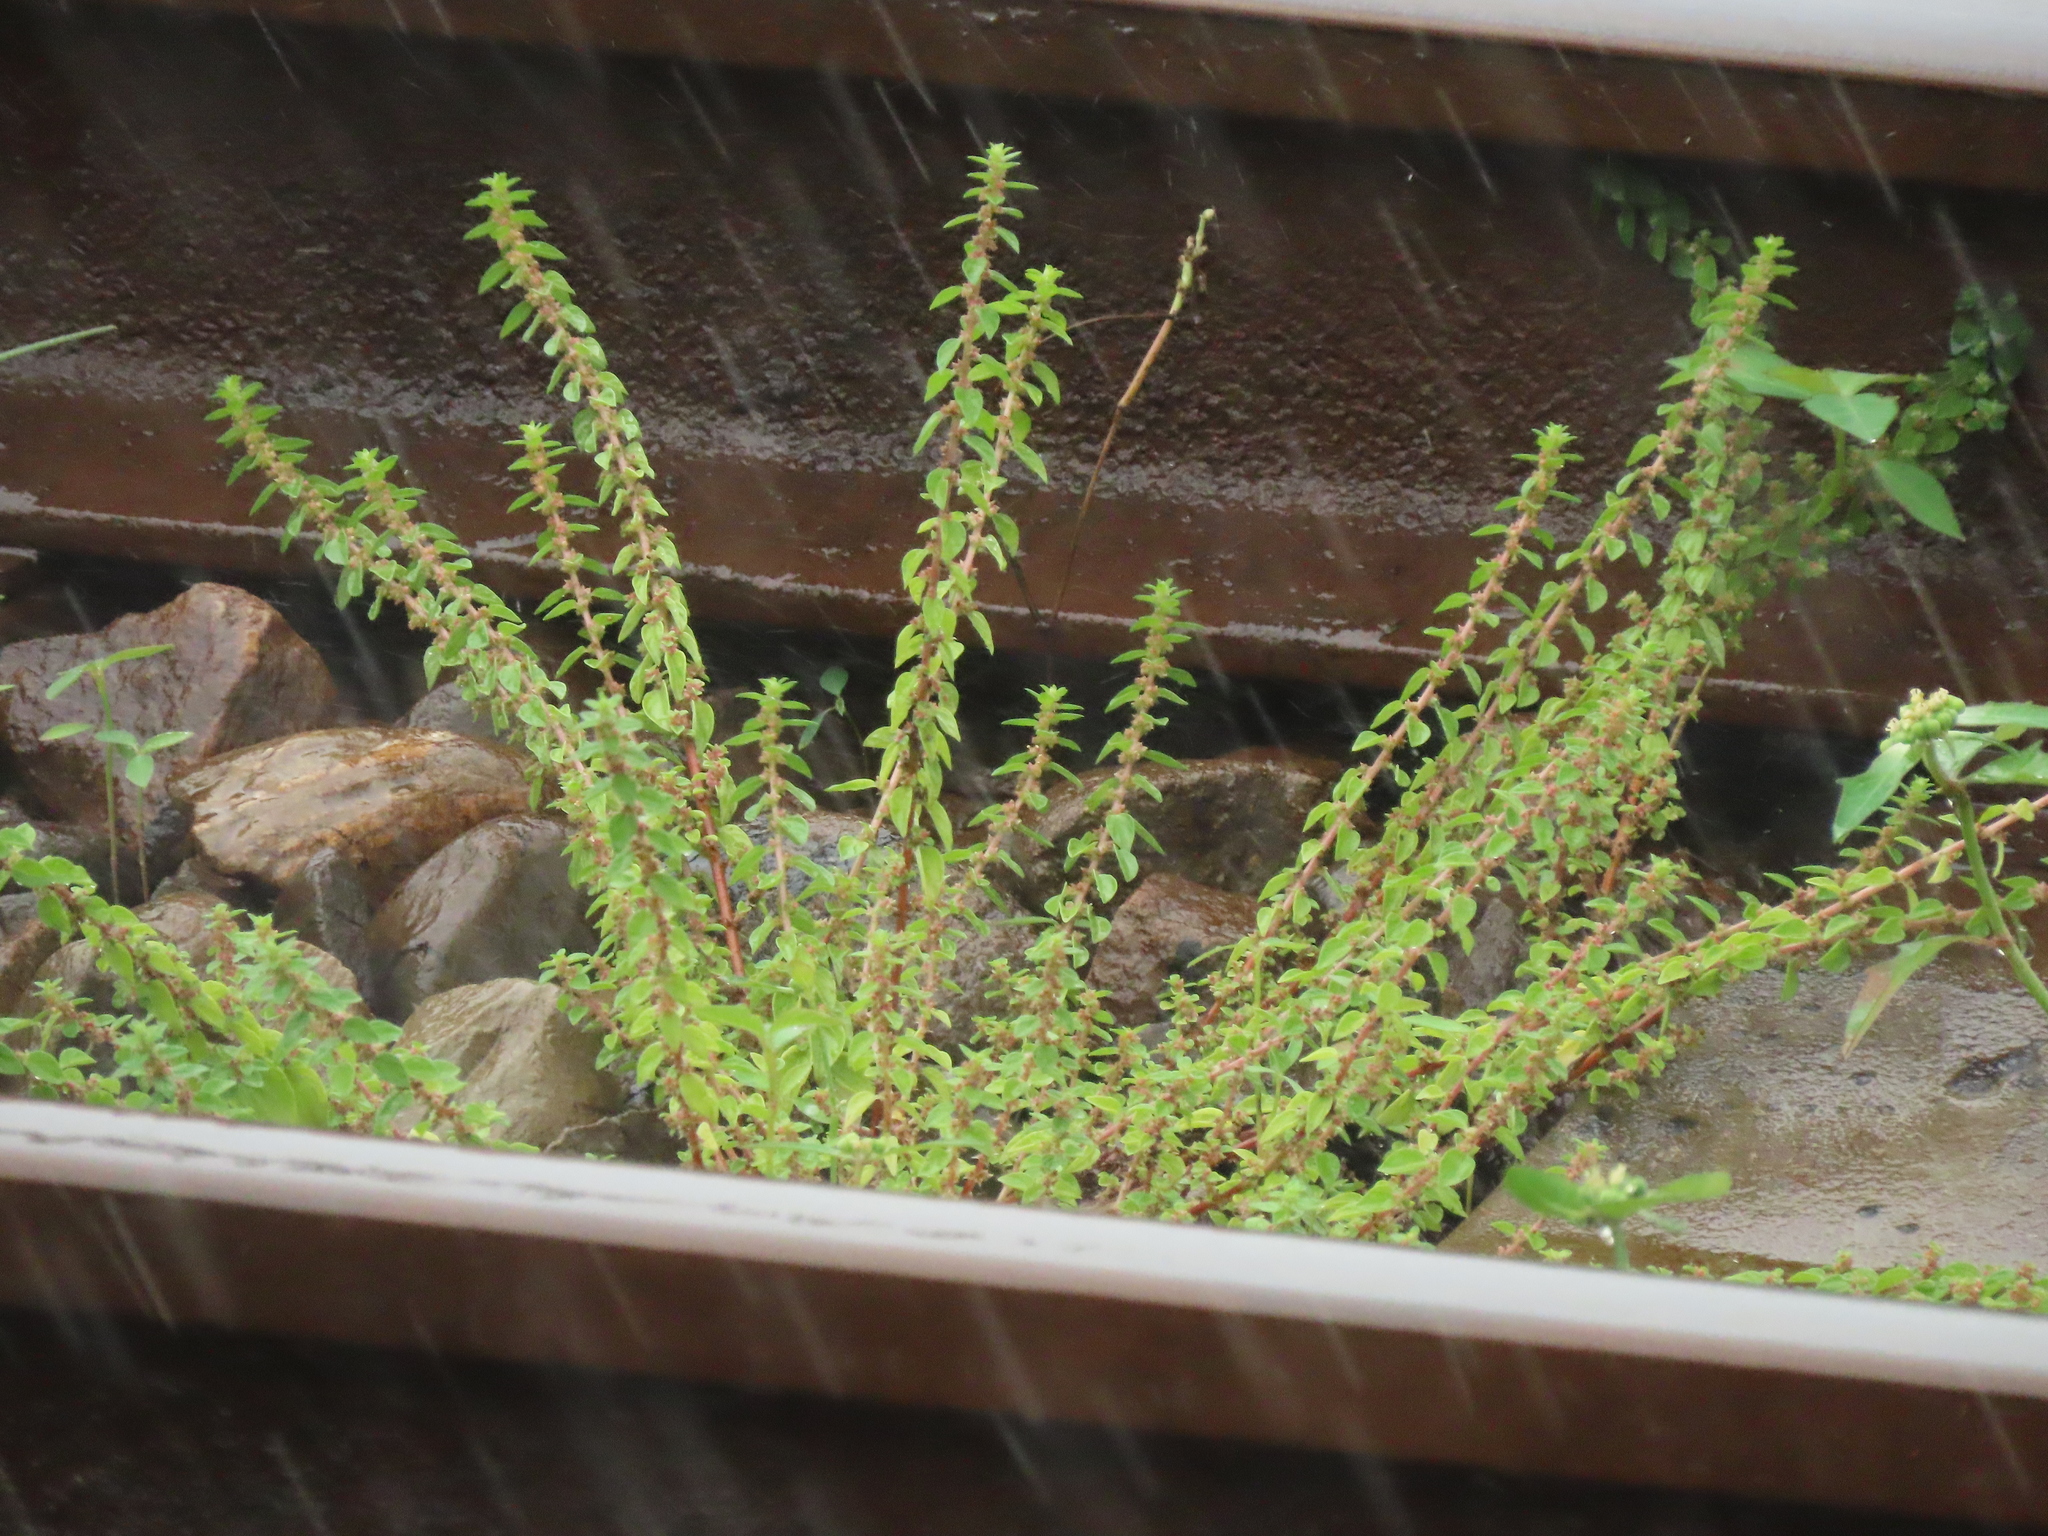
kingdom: Plantae
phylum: Tracheophyta
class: Magnoliopsida
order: Rosales
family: Urticaceae
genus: Pouzolzia
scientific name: Pouzolzia zeylanica
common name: Graceful pouzolzsbush
